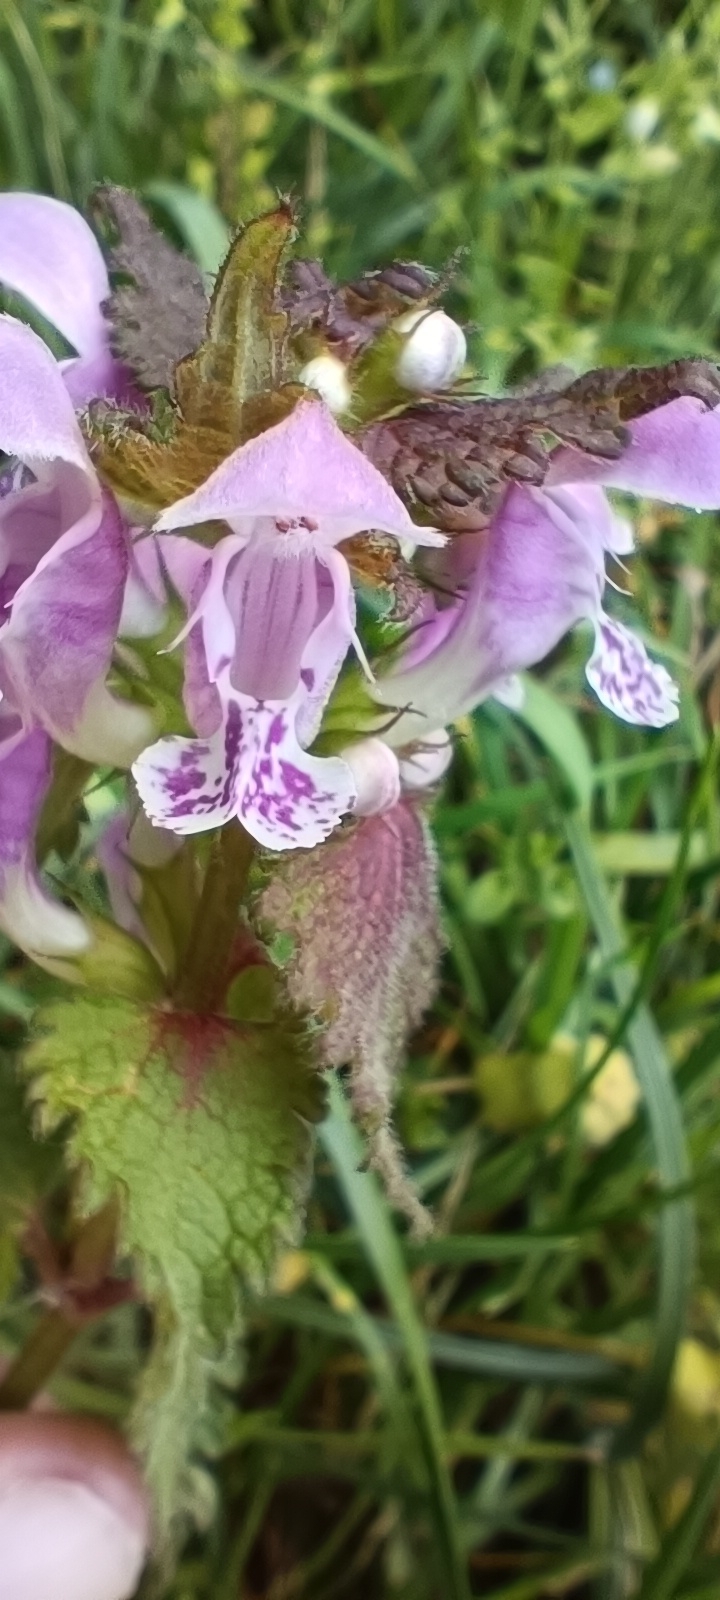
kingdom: Plantae
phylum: Tracheophyta
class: Magnoliopsida
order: Lamiales
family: Lamiaceae
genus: Lamium
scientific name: Lamium maculatum
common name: Spotted dead-nettle
